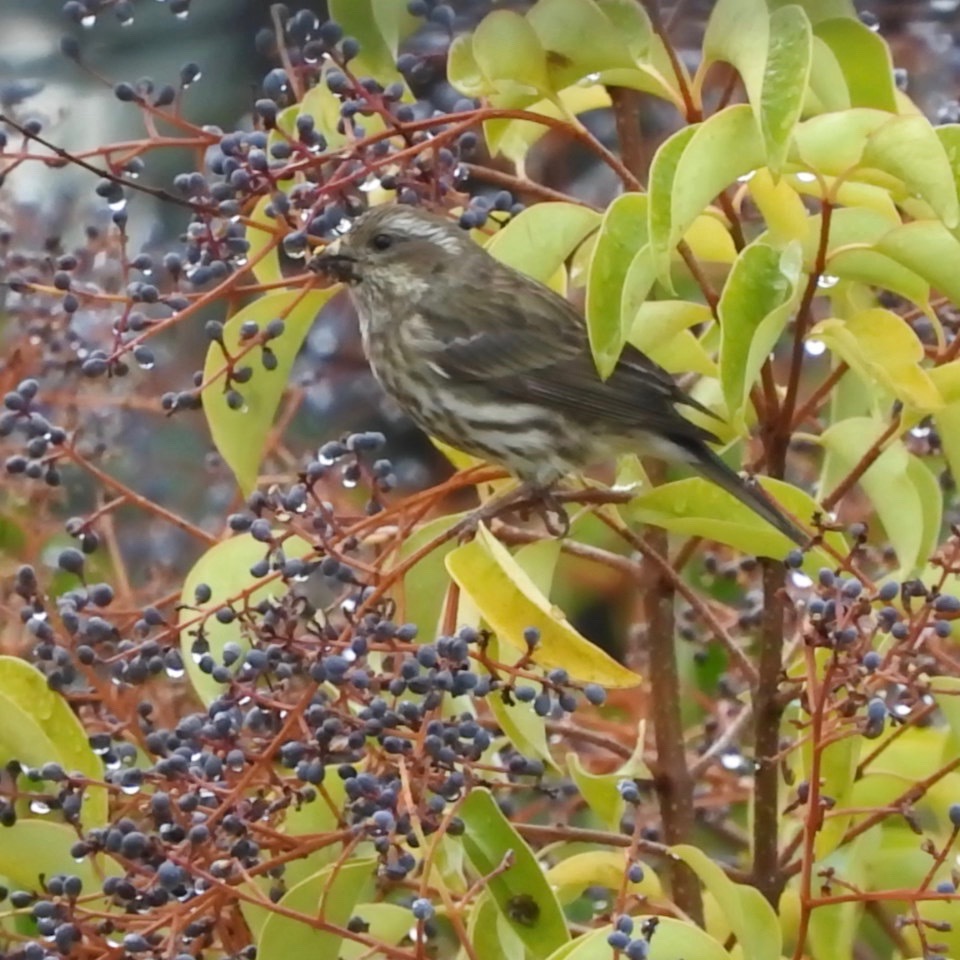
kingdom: Animalia
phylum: Chordata
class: Aves
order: Passeriformes
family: Fringillidae
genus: Haemorhous
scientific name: Haemorhous purpureus
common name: Purple finch
